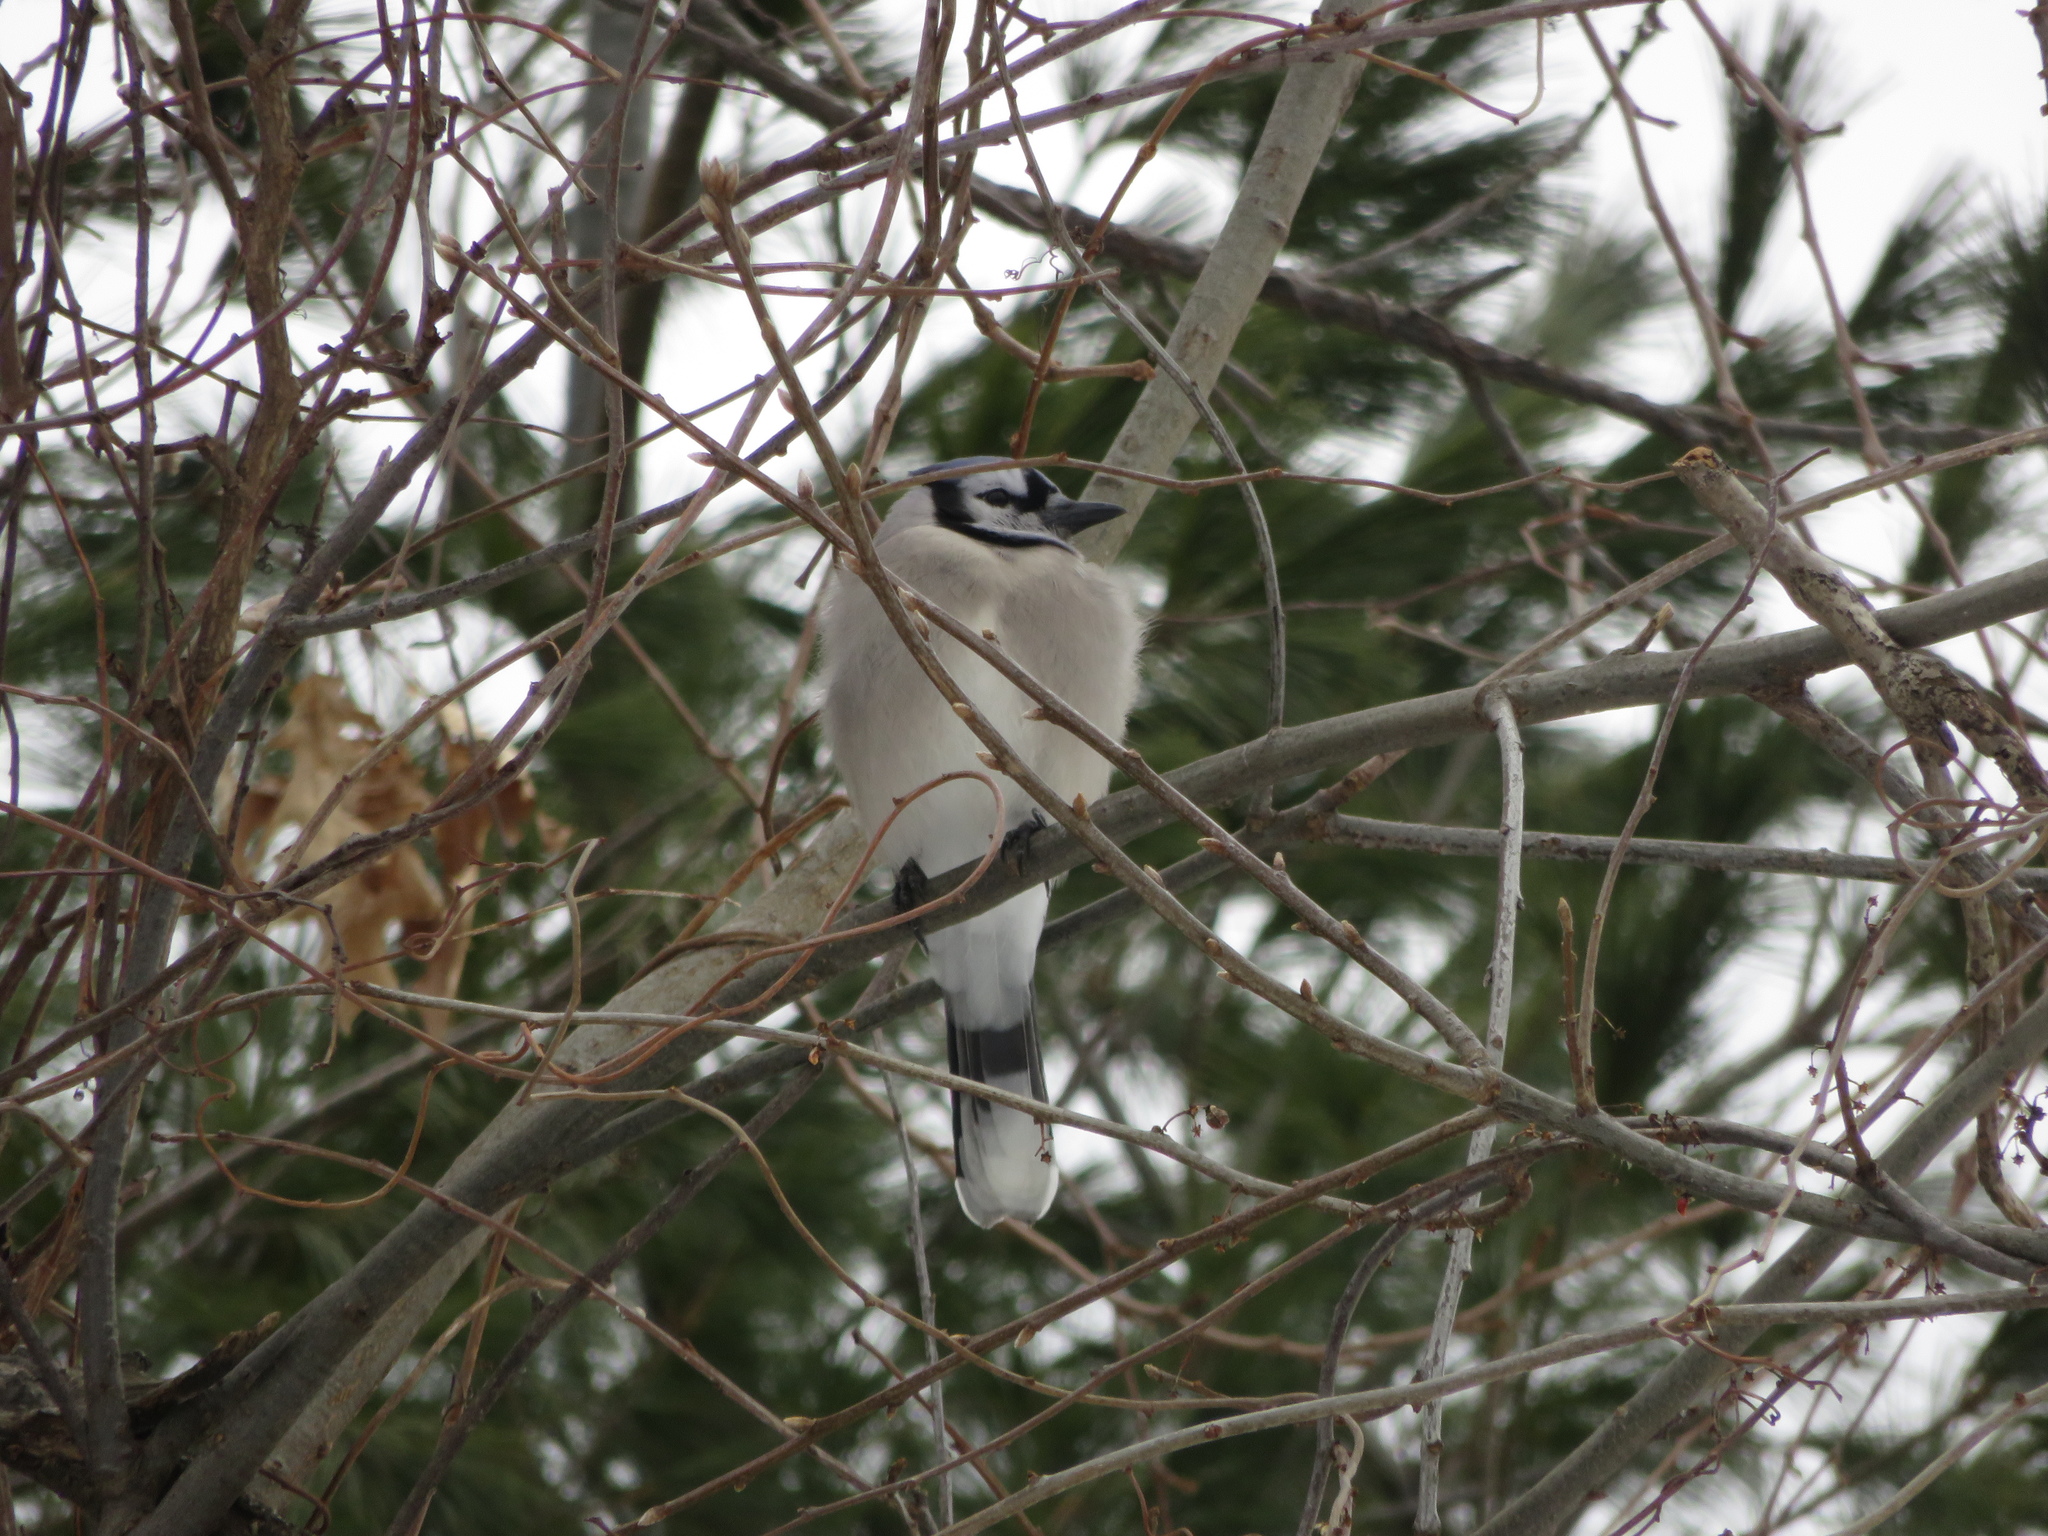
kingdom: Animalia
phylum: Chordata
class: Aves
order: Passeriformes
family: Corvidae
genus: Cyanocitta
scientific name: Cyanocitta cristata
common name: Blue jay
